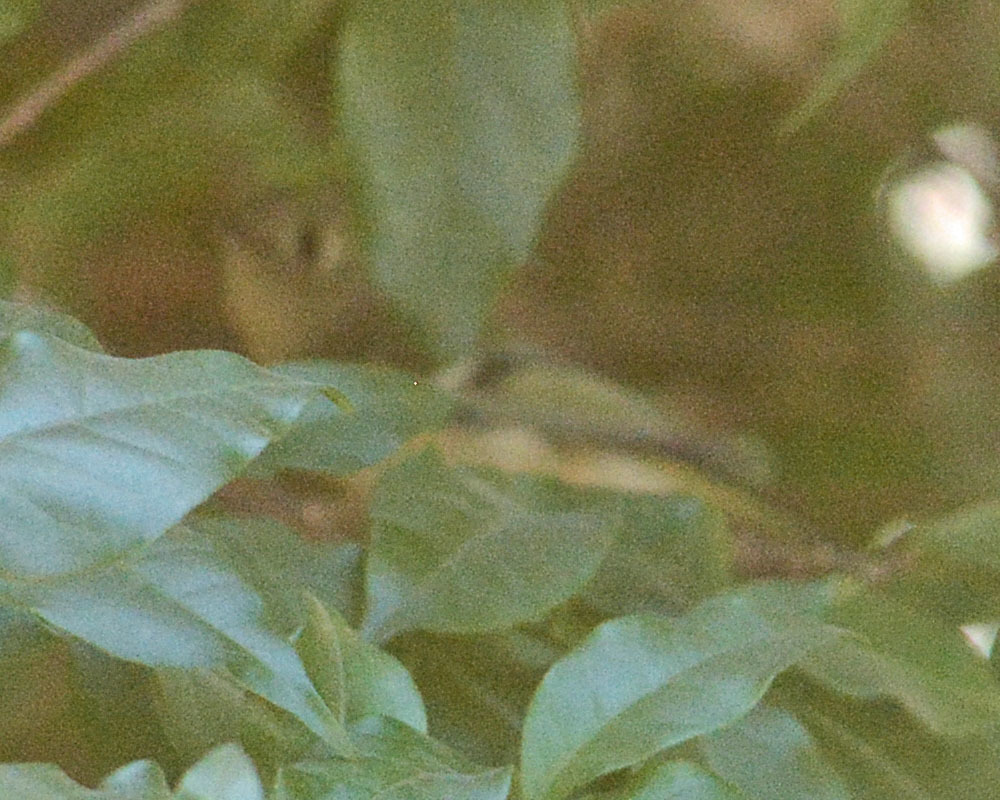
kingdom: Animalia
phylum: Chordata
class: Aves
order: Passeriformes
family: Regulidae
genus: Regulus
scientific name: Regulus calendula
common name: Ruby-crowned kinglet
